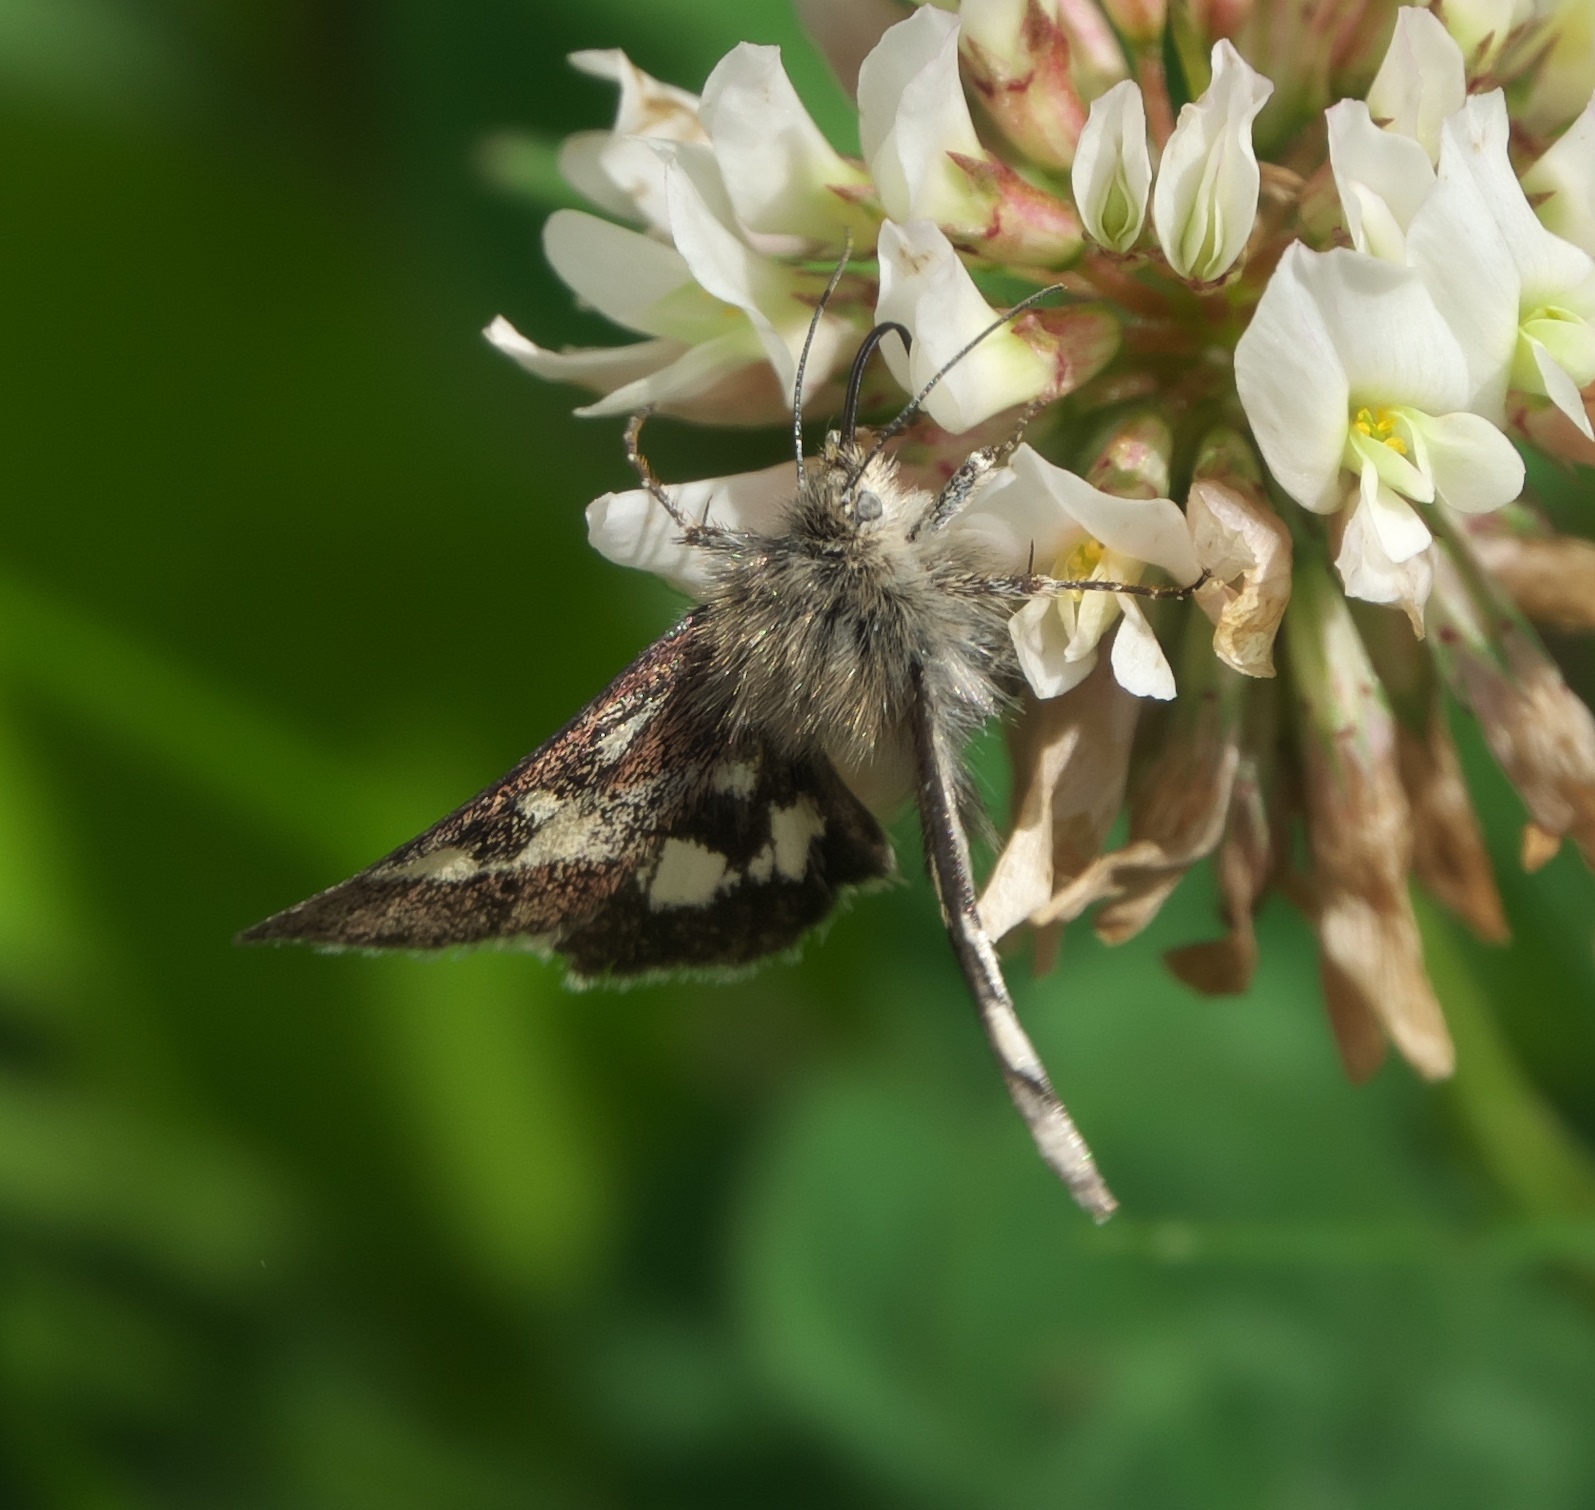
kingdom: Animalia
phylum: Arthropoda
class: Insecta
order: Lepidoptera
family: Noctuidae
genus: Schinia
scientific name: Schinia suetus
